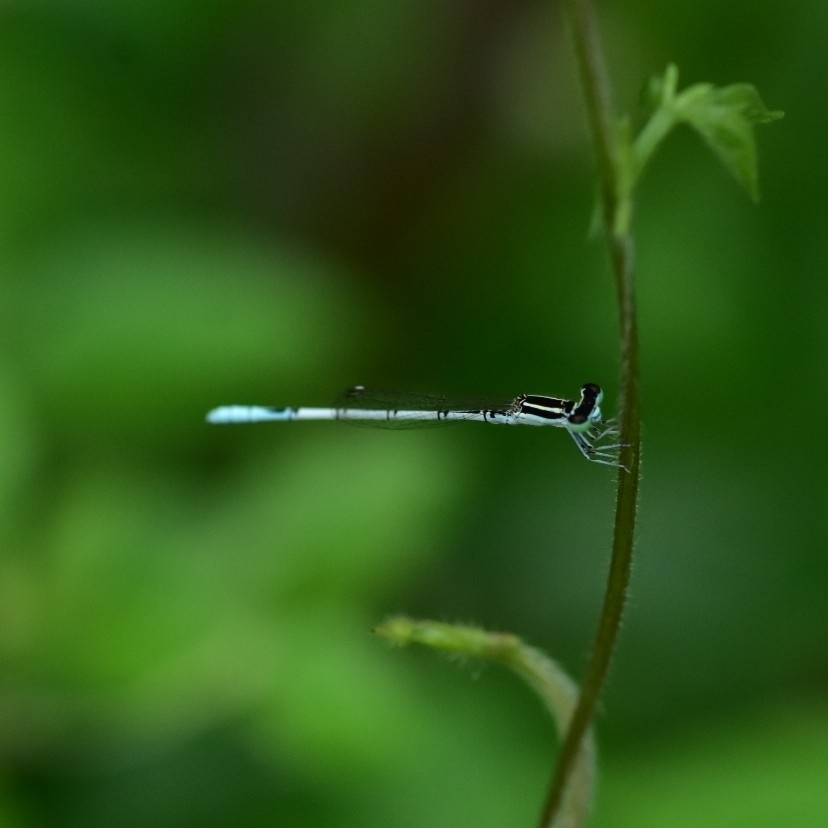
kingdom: Animalia
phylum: Arthropoda
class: Insecta
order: Odonata
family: Coenagrionidae
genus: Agriocnemis
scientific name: Agriocnemis pieris
